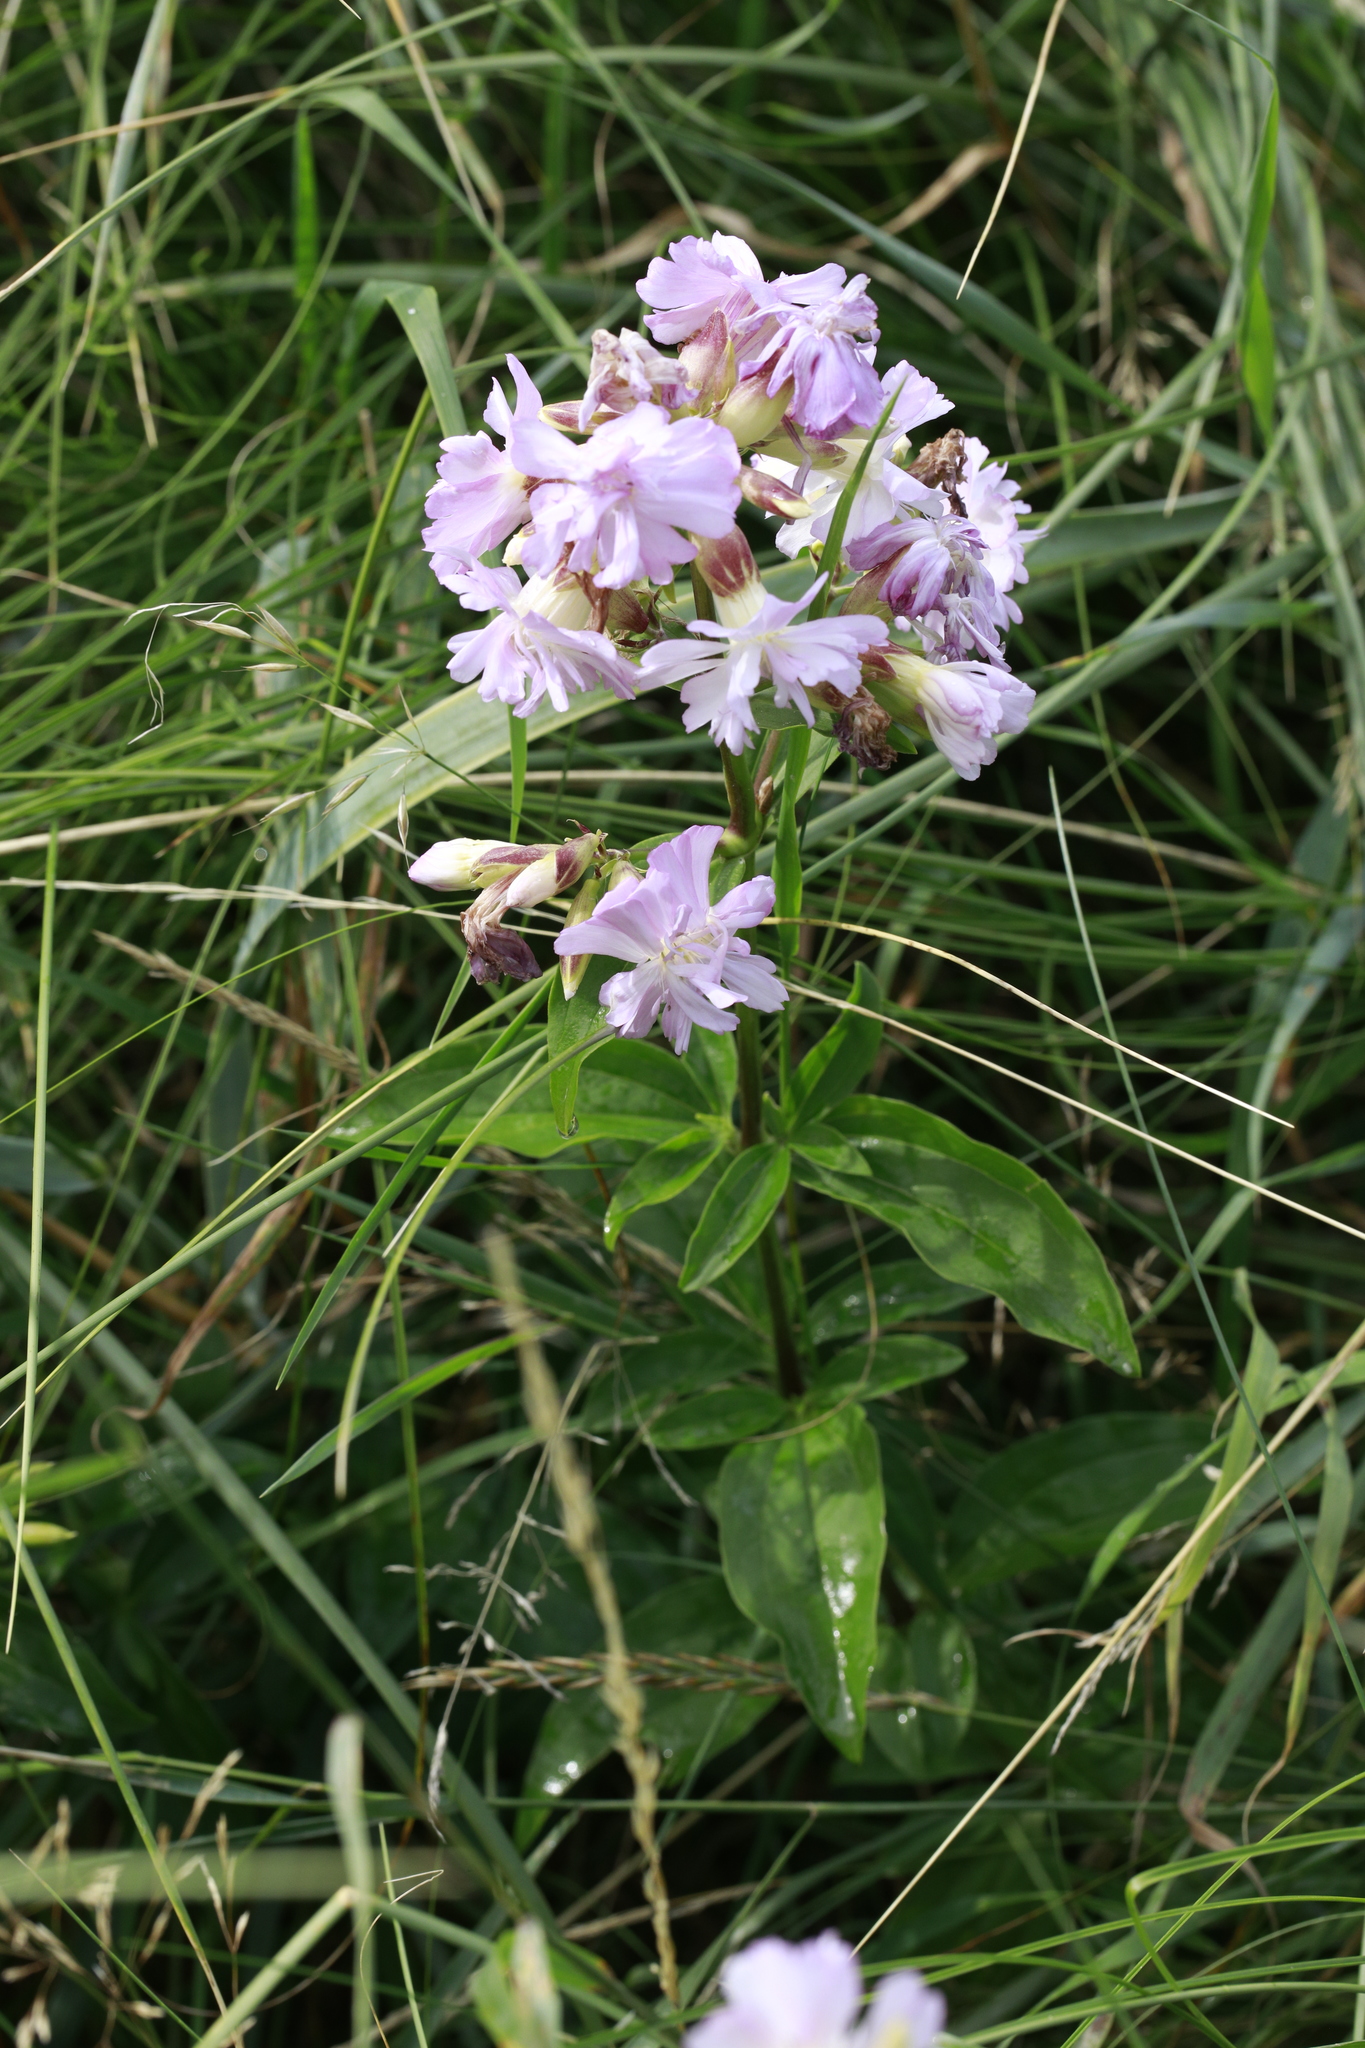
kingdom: Plantae
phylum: Tracheophyta
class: Magnoliopsida
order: Caryophyllales
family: Caryophyllaceae
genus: Saponaria
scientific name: Saponaria officinalis
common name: Soapwort
